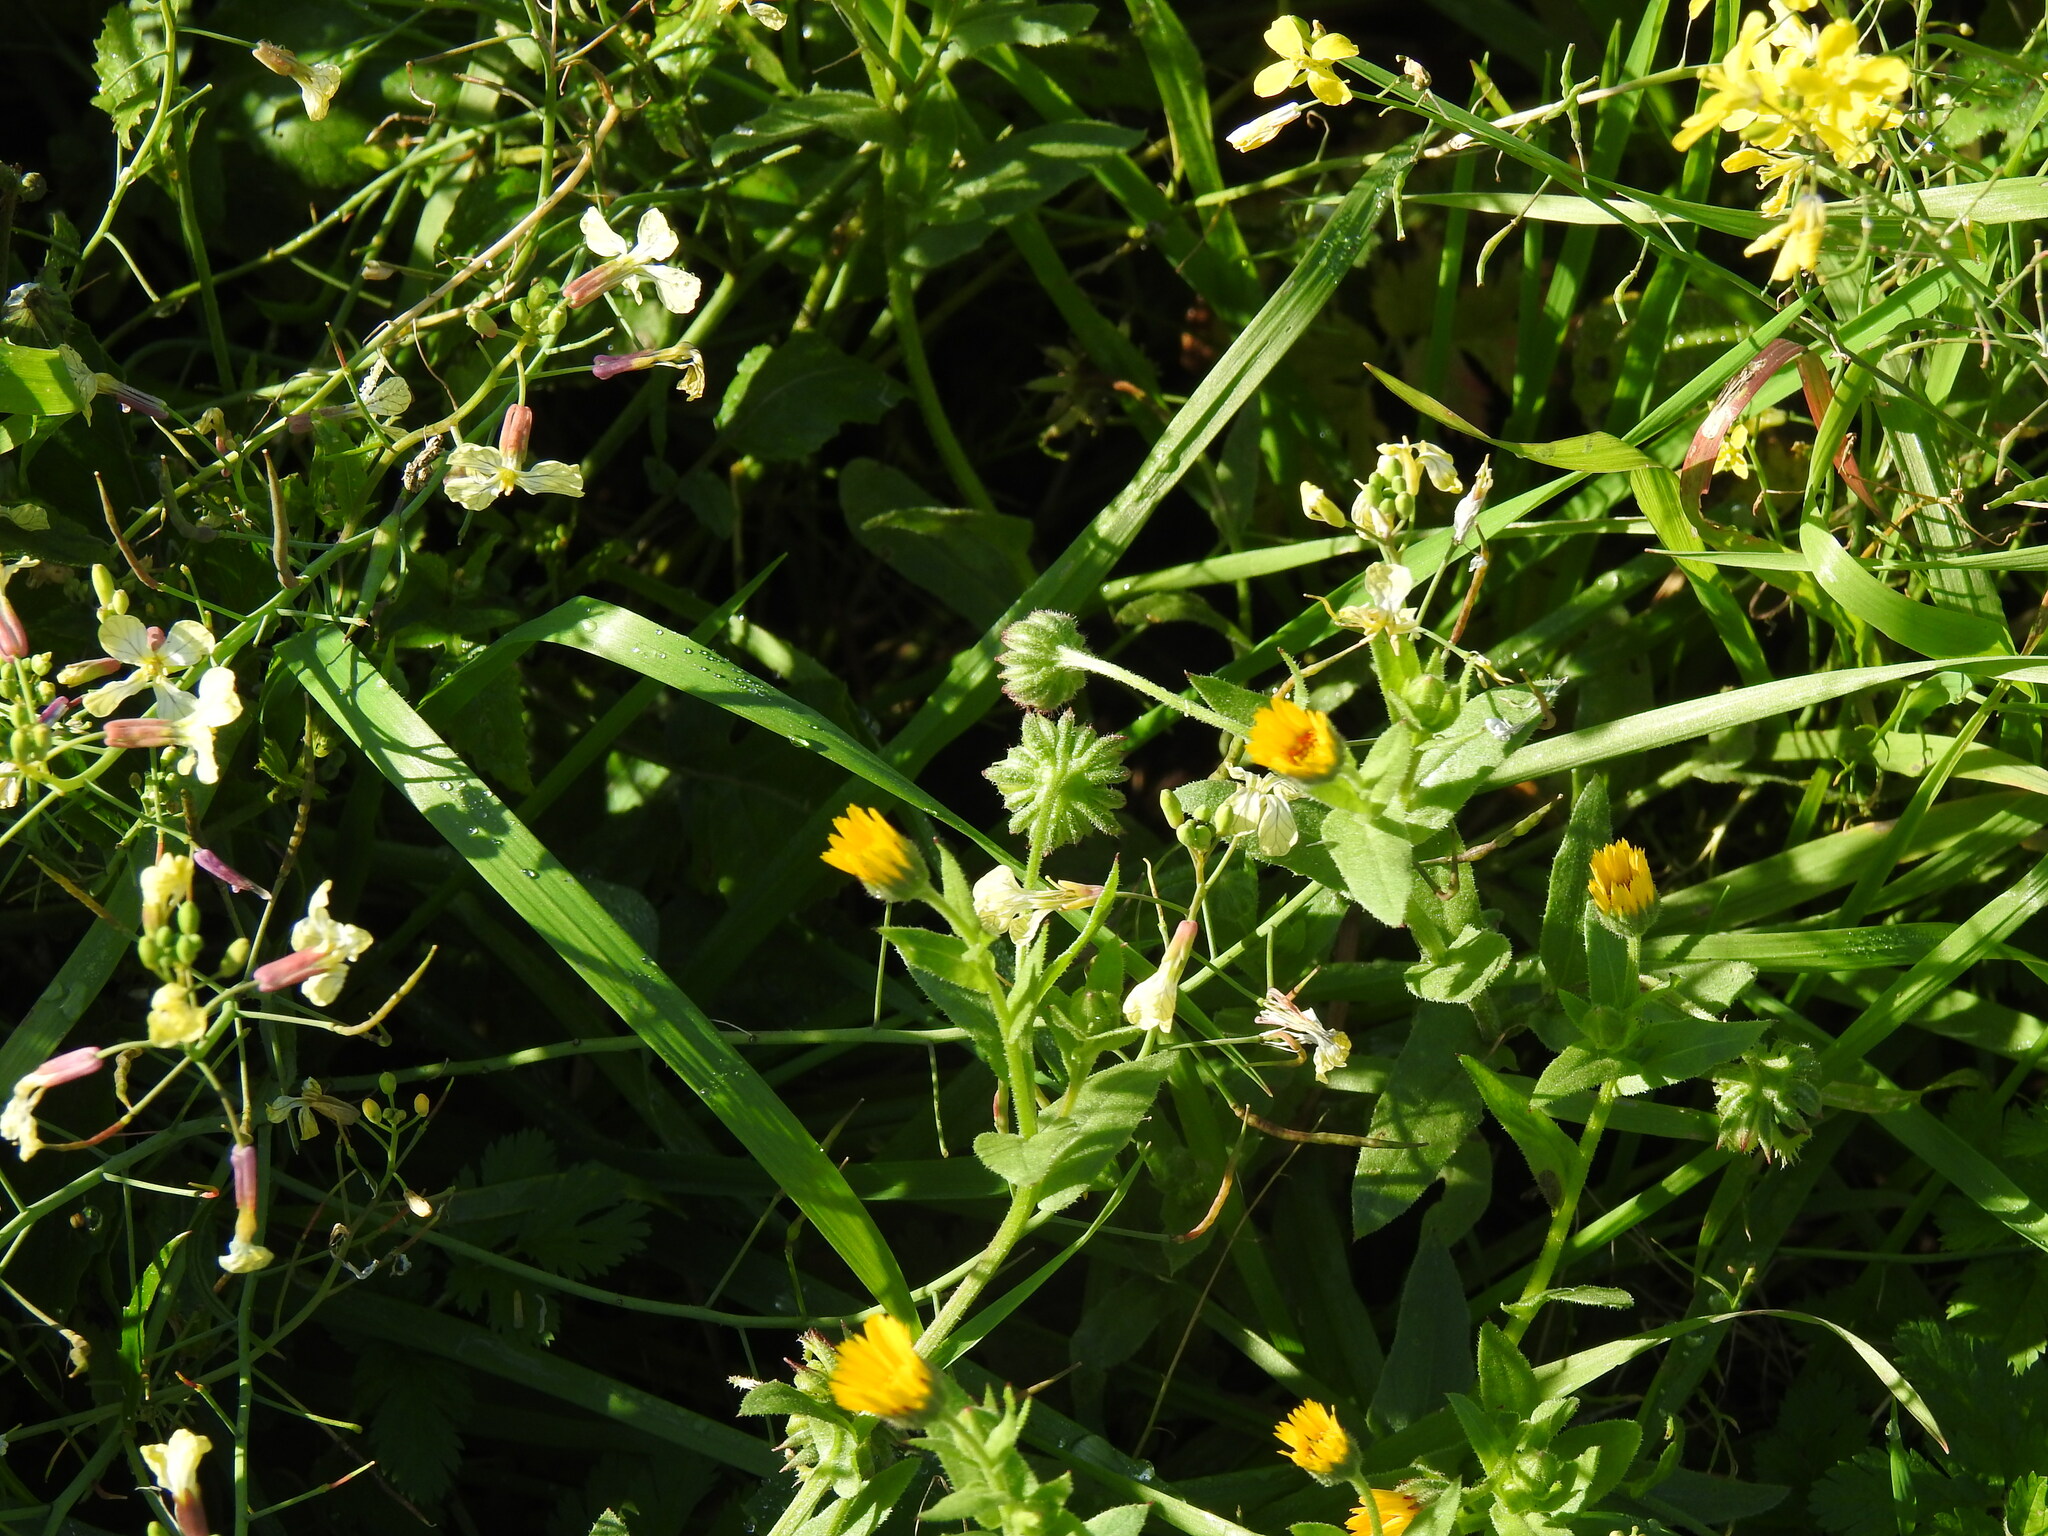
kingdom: Plantae
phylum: Tracheophyta
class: Magnoliopsida
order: Asterales
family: Asteraceae
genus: Calendula
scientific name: Calendula arvensis
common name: Field marigold
